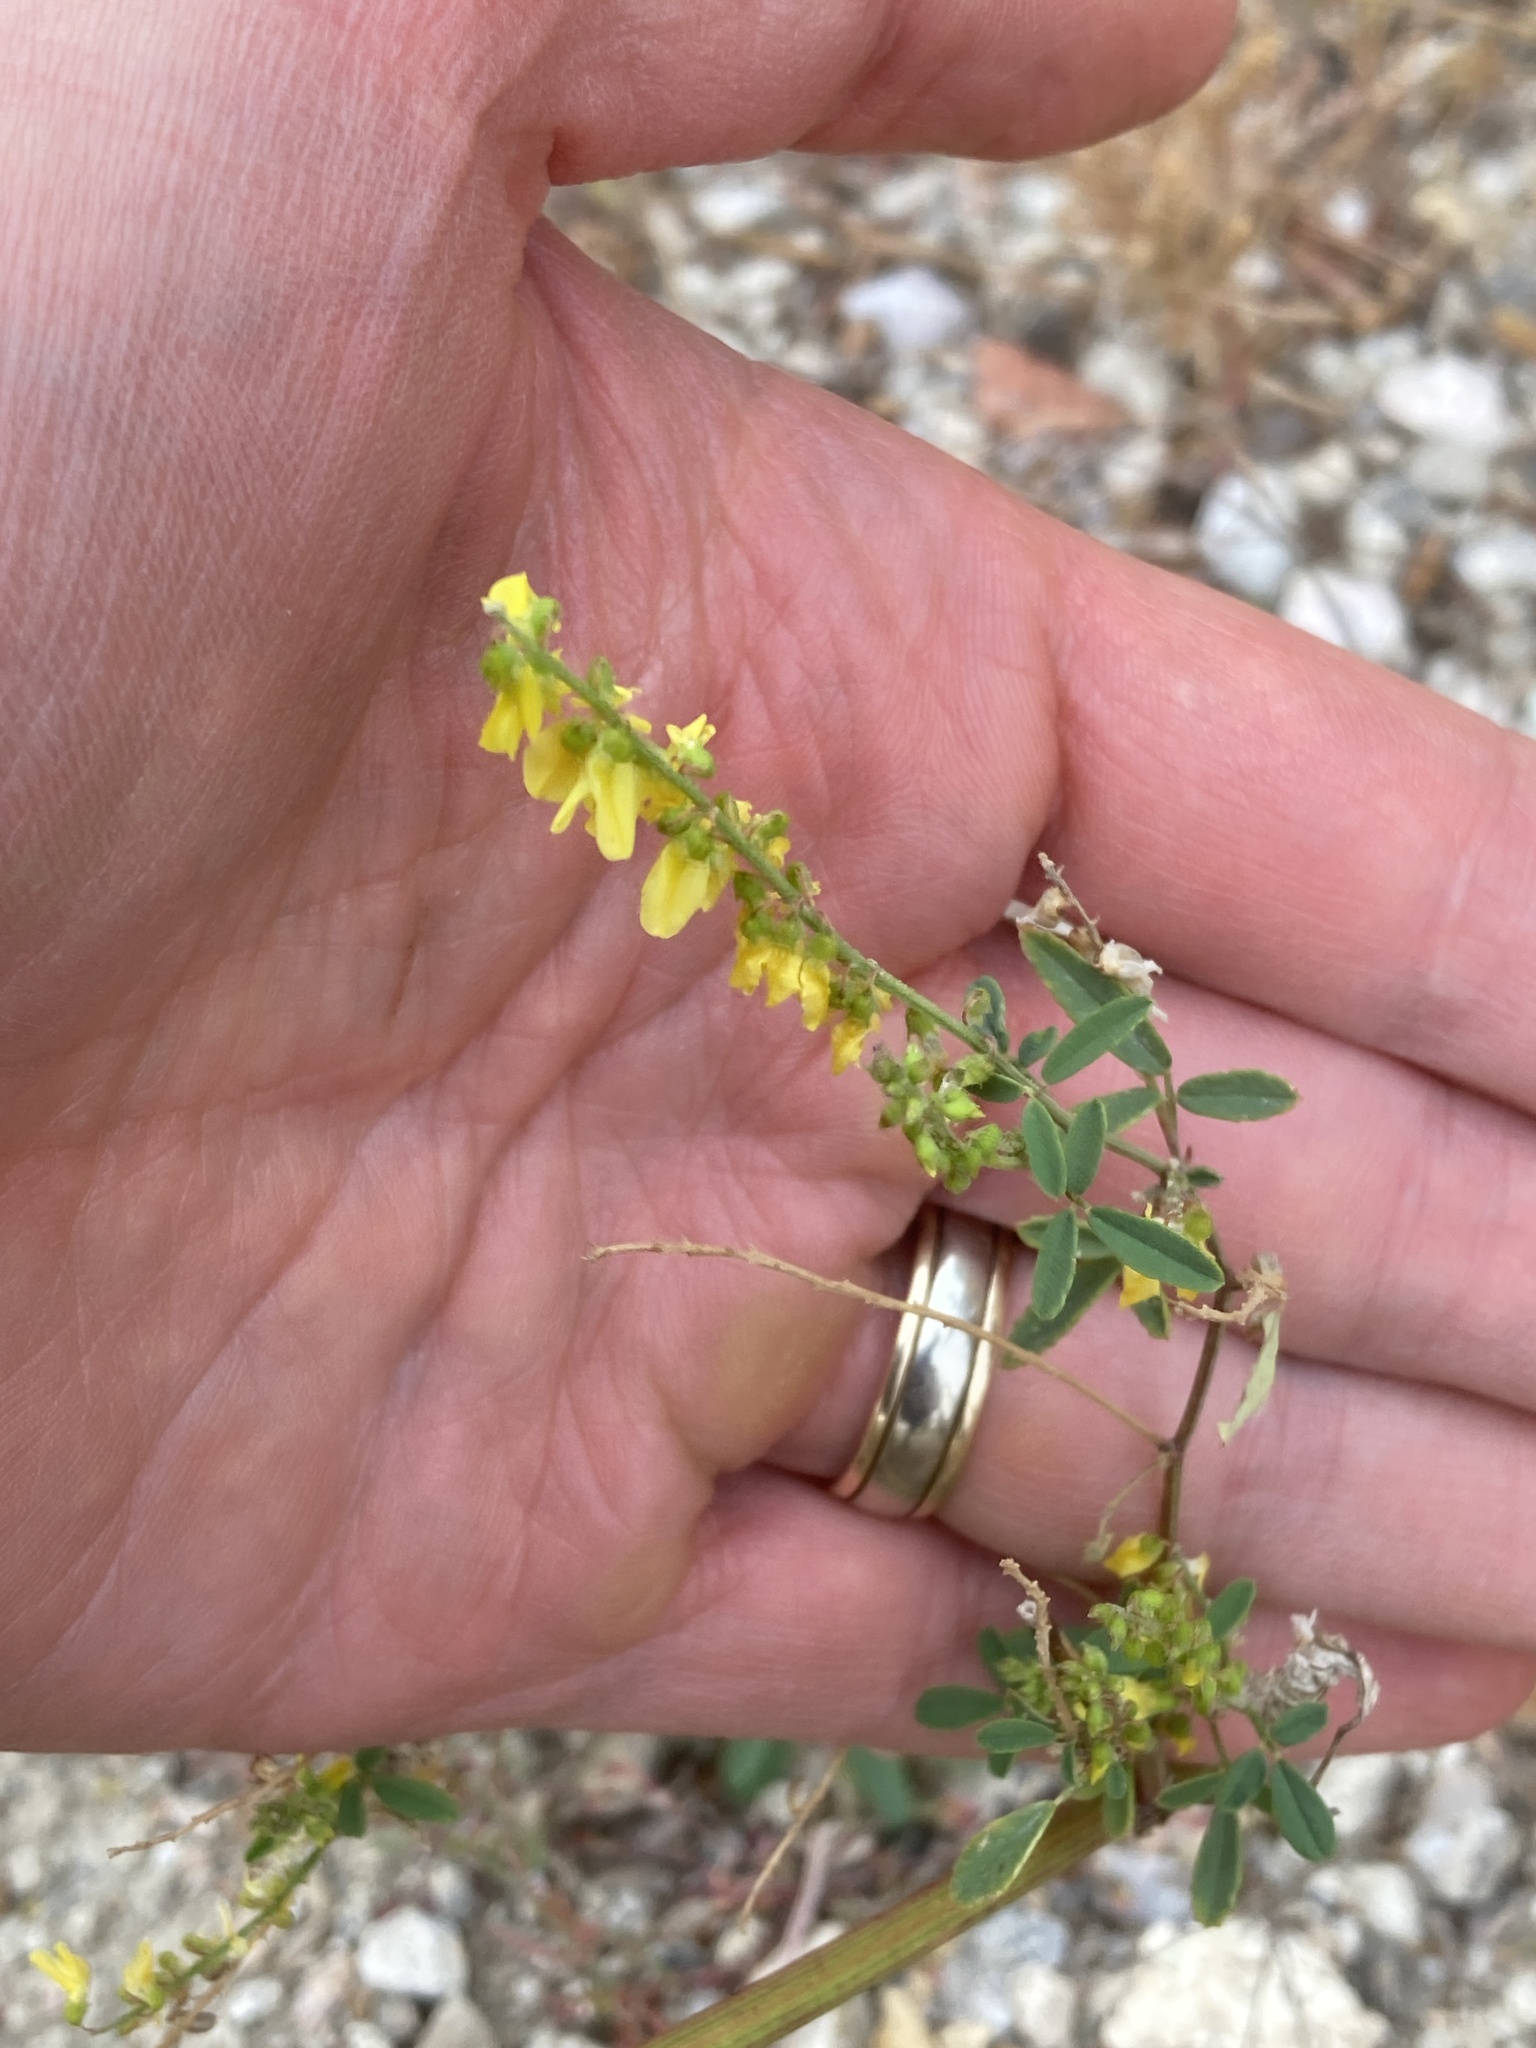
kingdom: Plantae
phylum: Tracheophyta
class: Magnoliopsida
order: Fabales
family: Fabaceae
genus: Melilotus
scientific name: Melilotus officinalis
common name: Sweetclover
